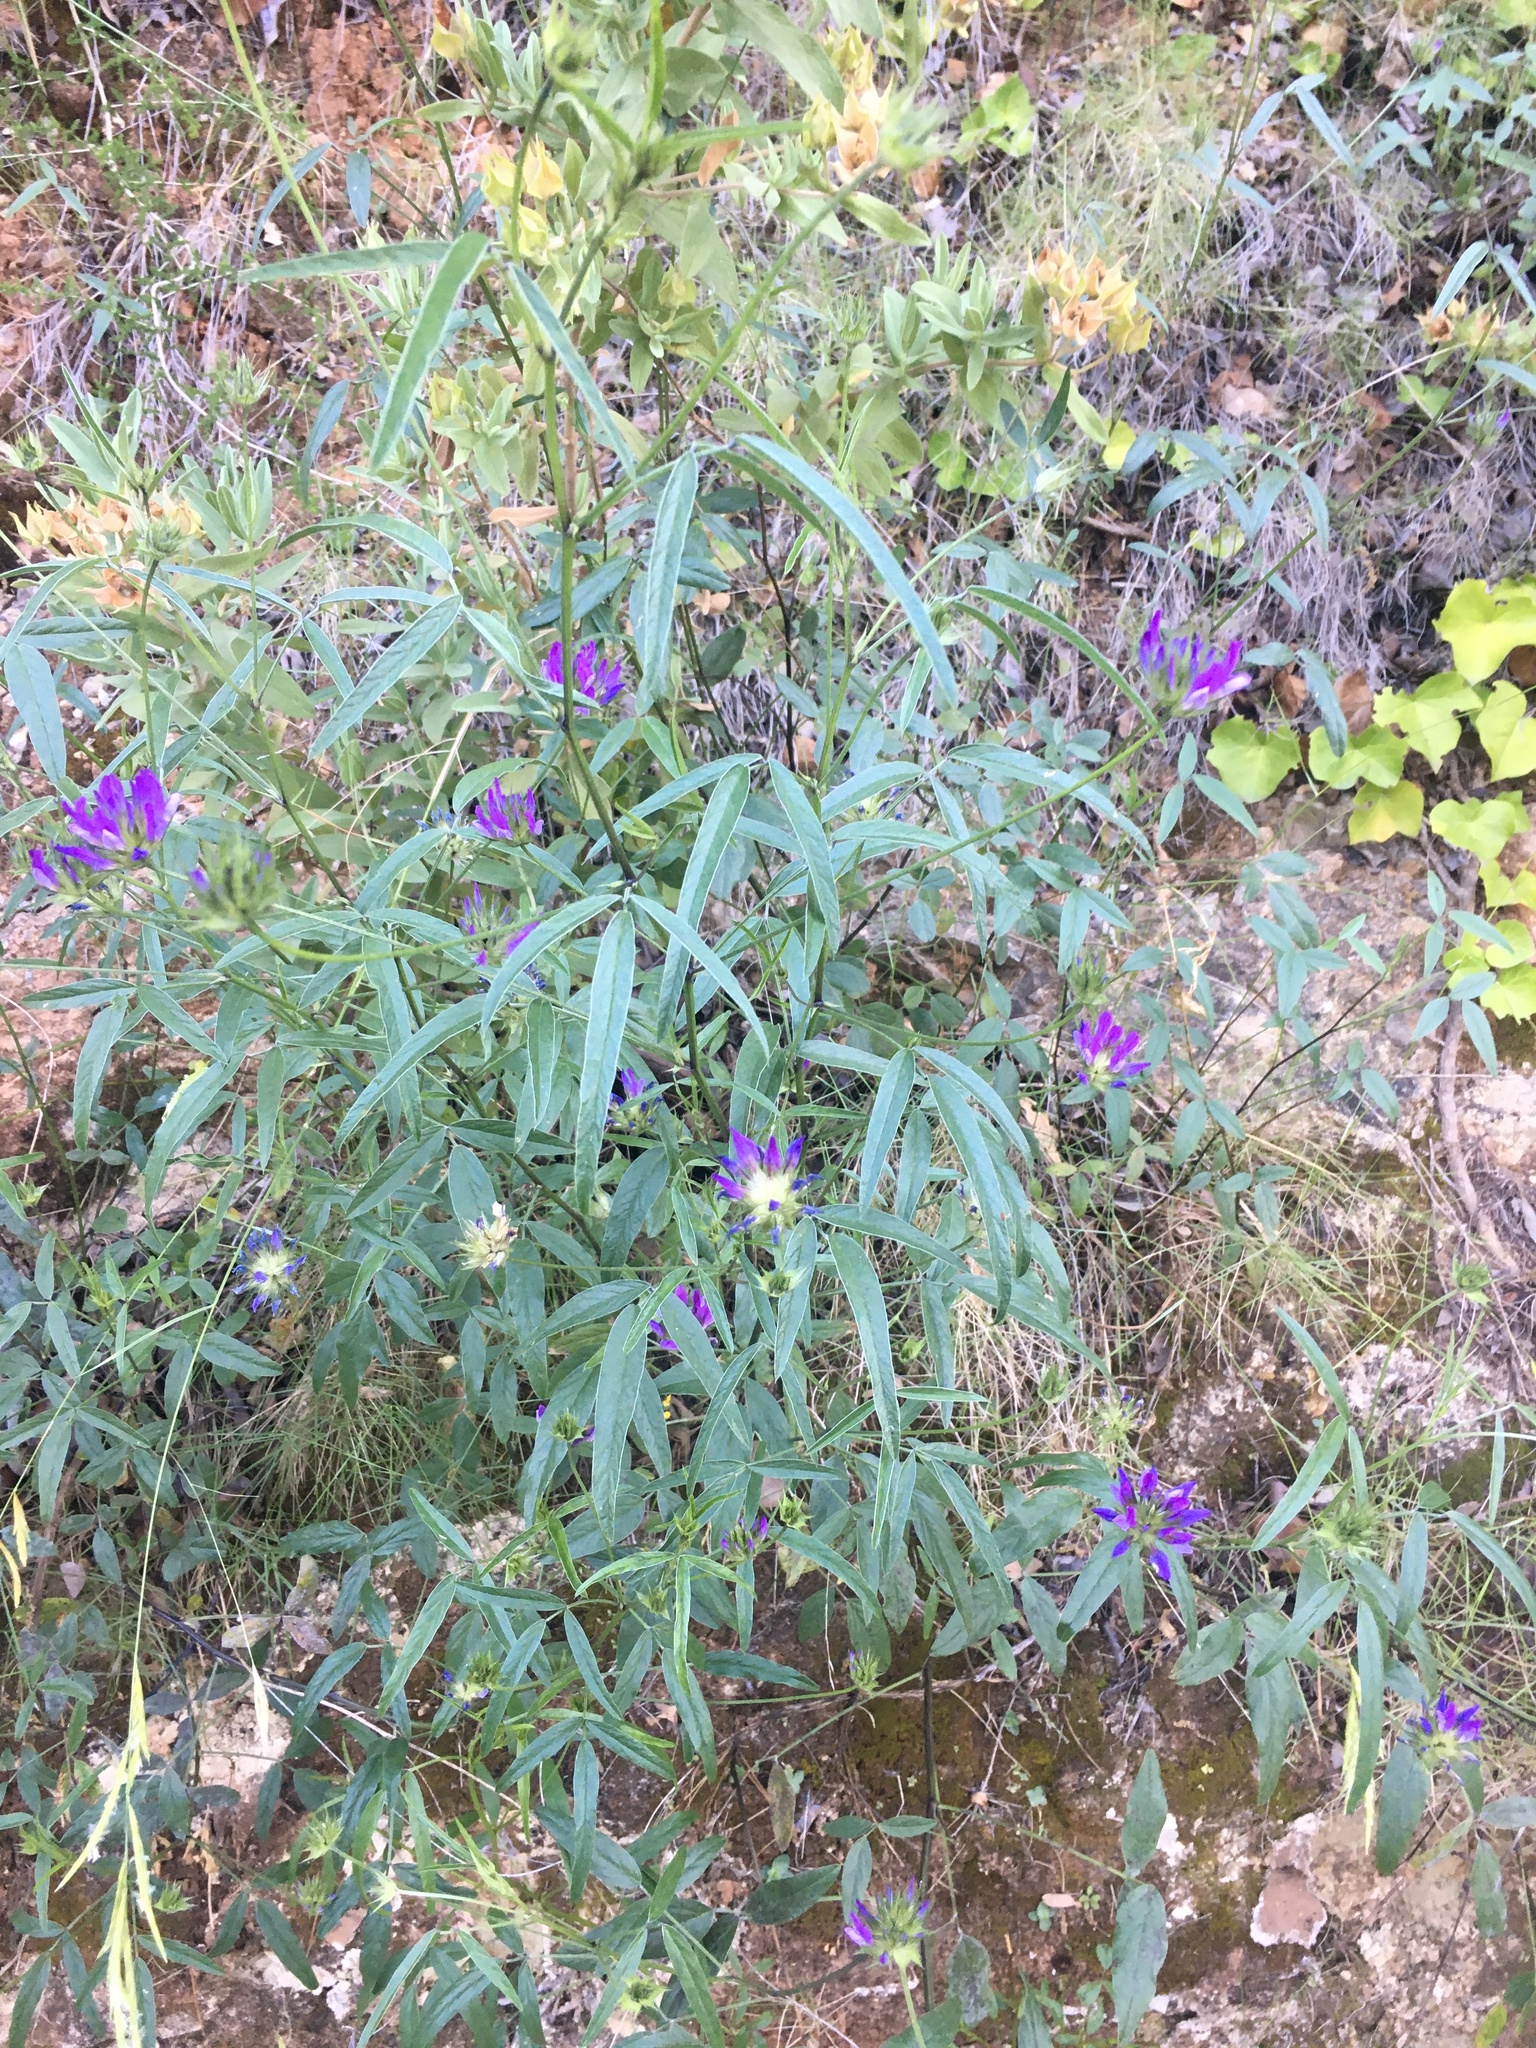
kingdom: Plantae
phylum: Tracheophyta
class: Magnoliopsida
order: Fabales
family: Fabaceae
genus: Bituminaria
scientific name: Bituminaria bituminosa
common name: Arabian pea
